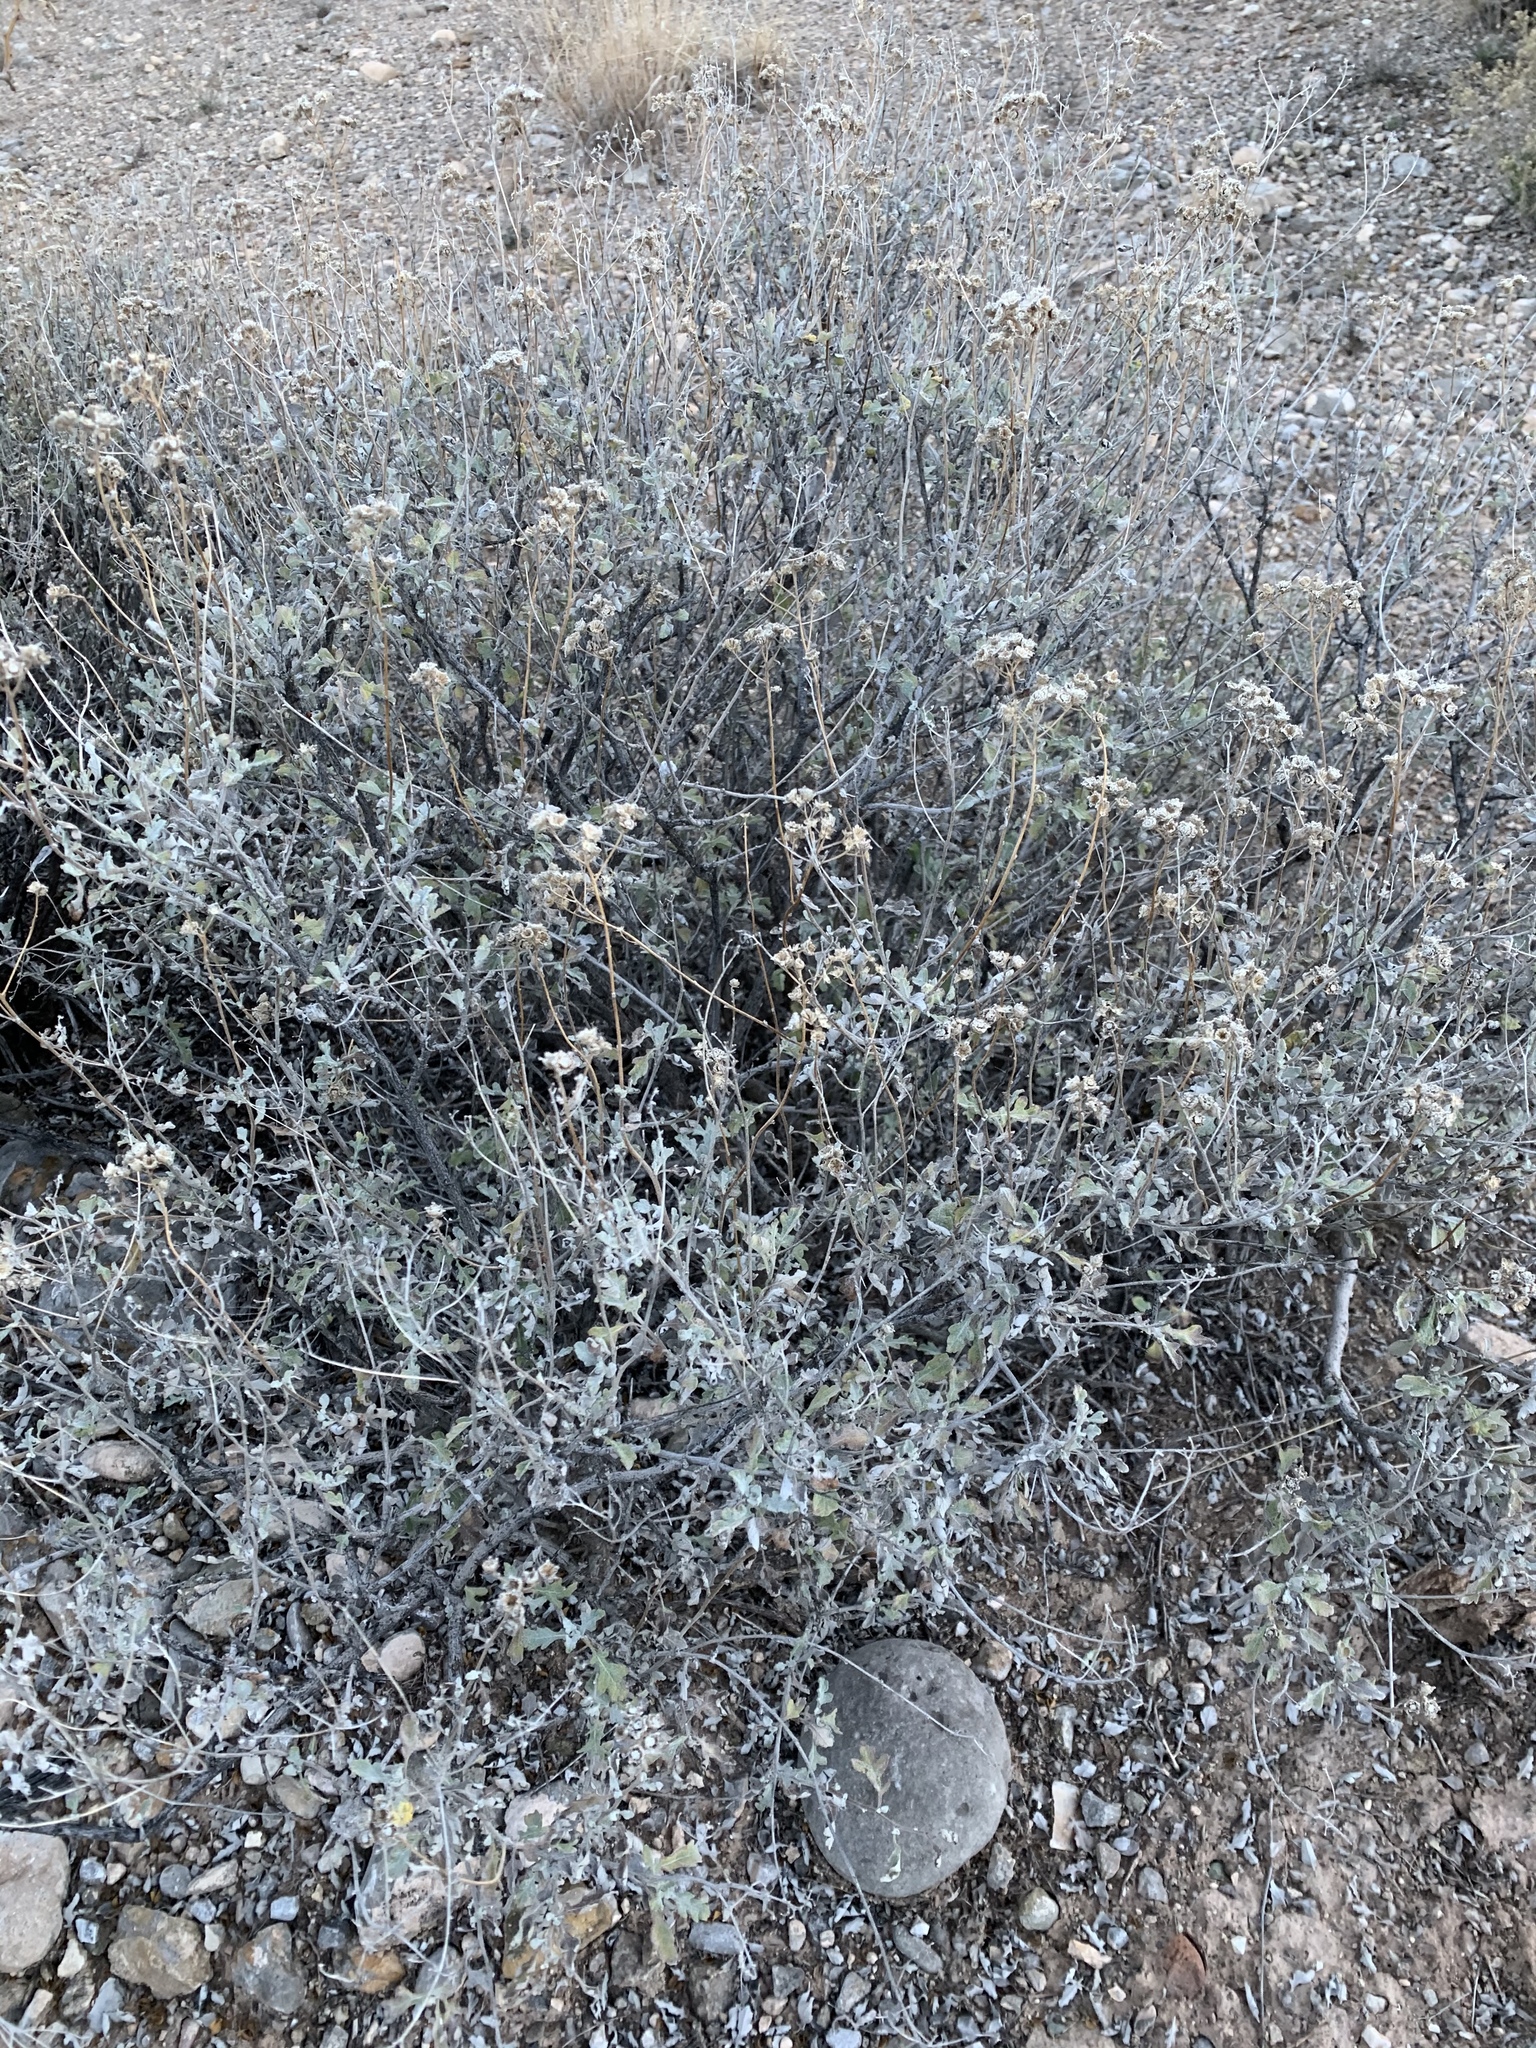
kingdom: Plantae
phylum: Tracheophyta
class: Magnoliopsida
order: Asterales
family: Asteraceae
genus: Parthenium
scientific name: Parthenium incanum
